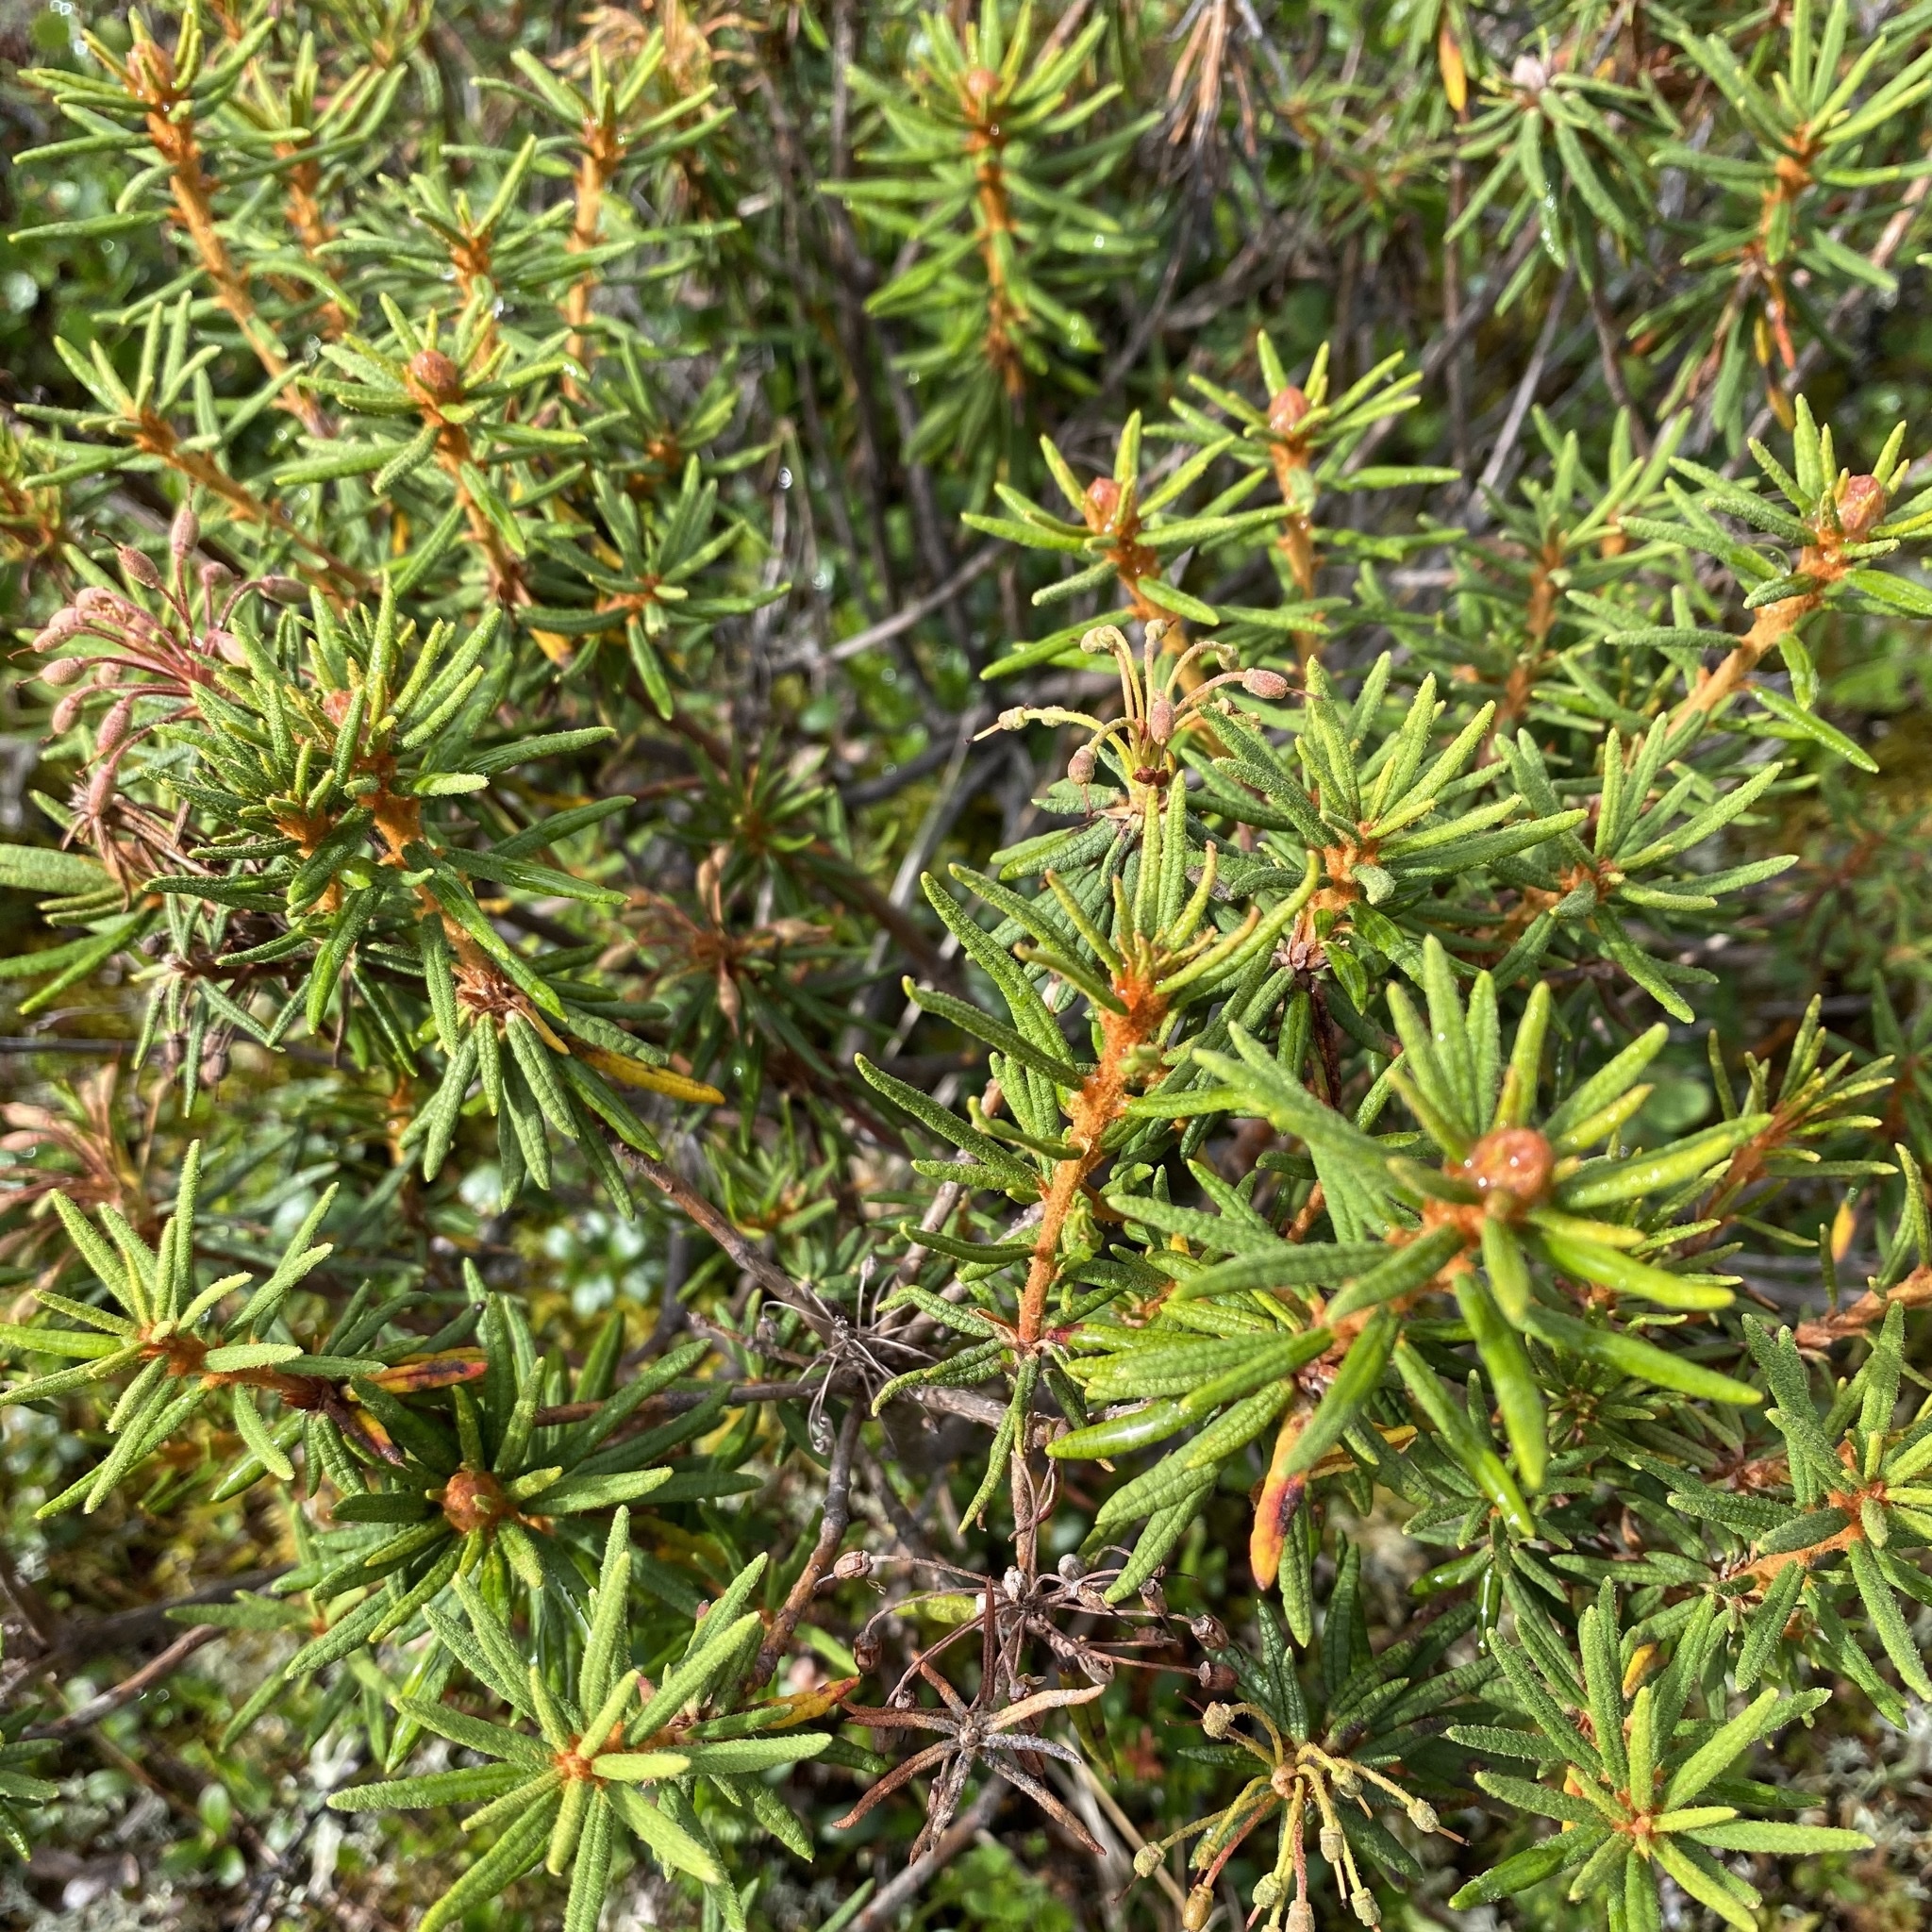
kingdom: Plantae
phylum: Tracheophyta
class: Magnoliopsida
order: Ericales
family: Ericaceae
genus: Rhododendron
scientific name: Rhododendron tomentosum
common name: Marsh labrador tea
